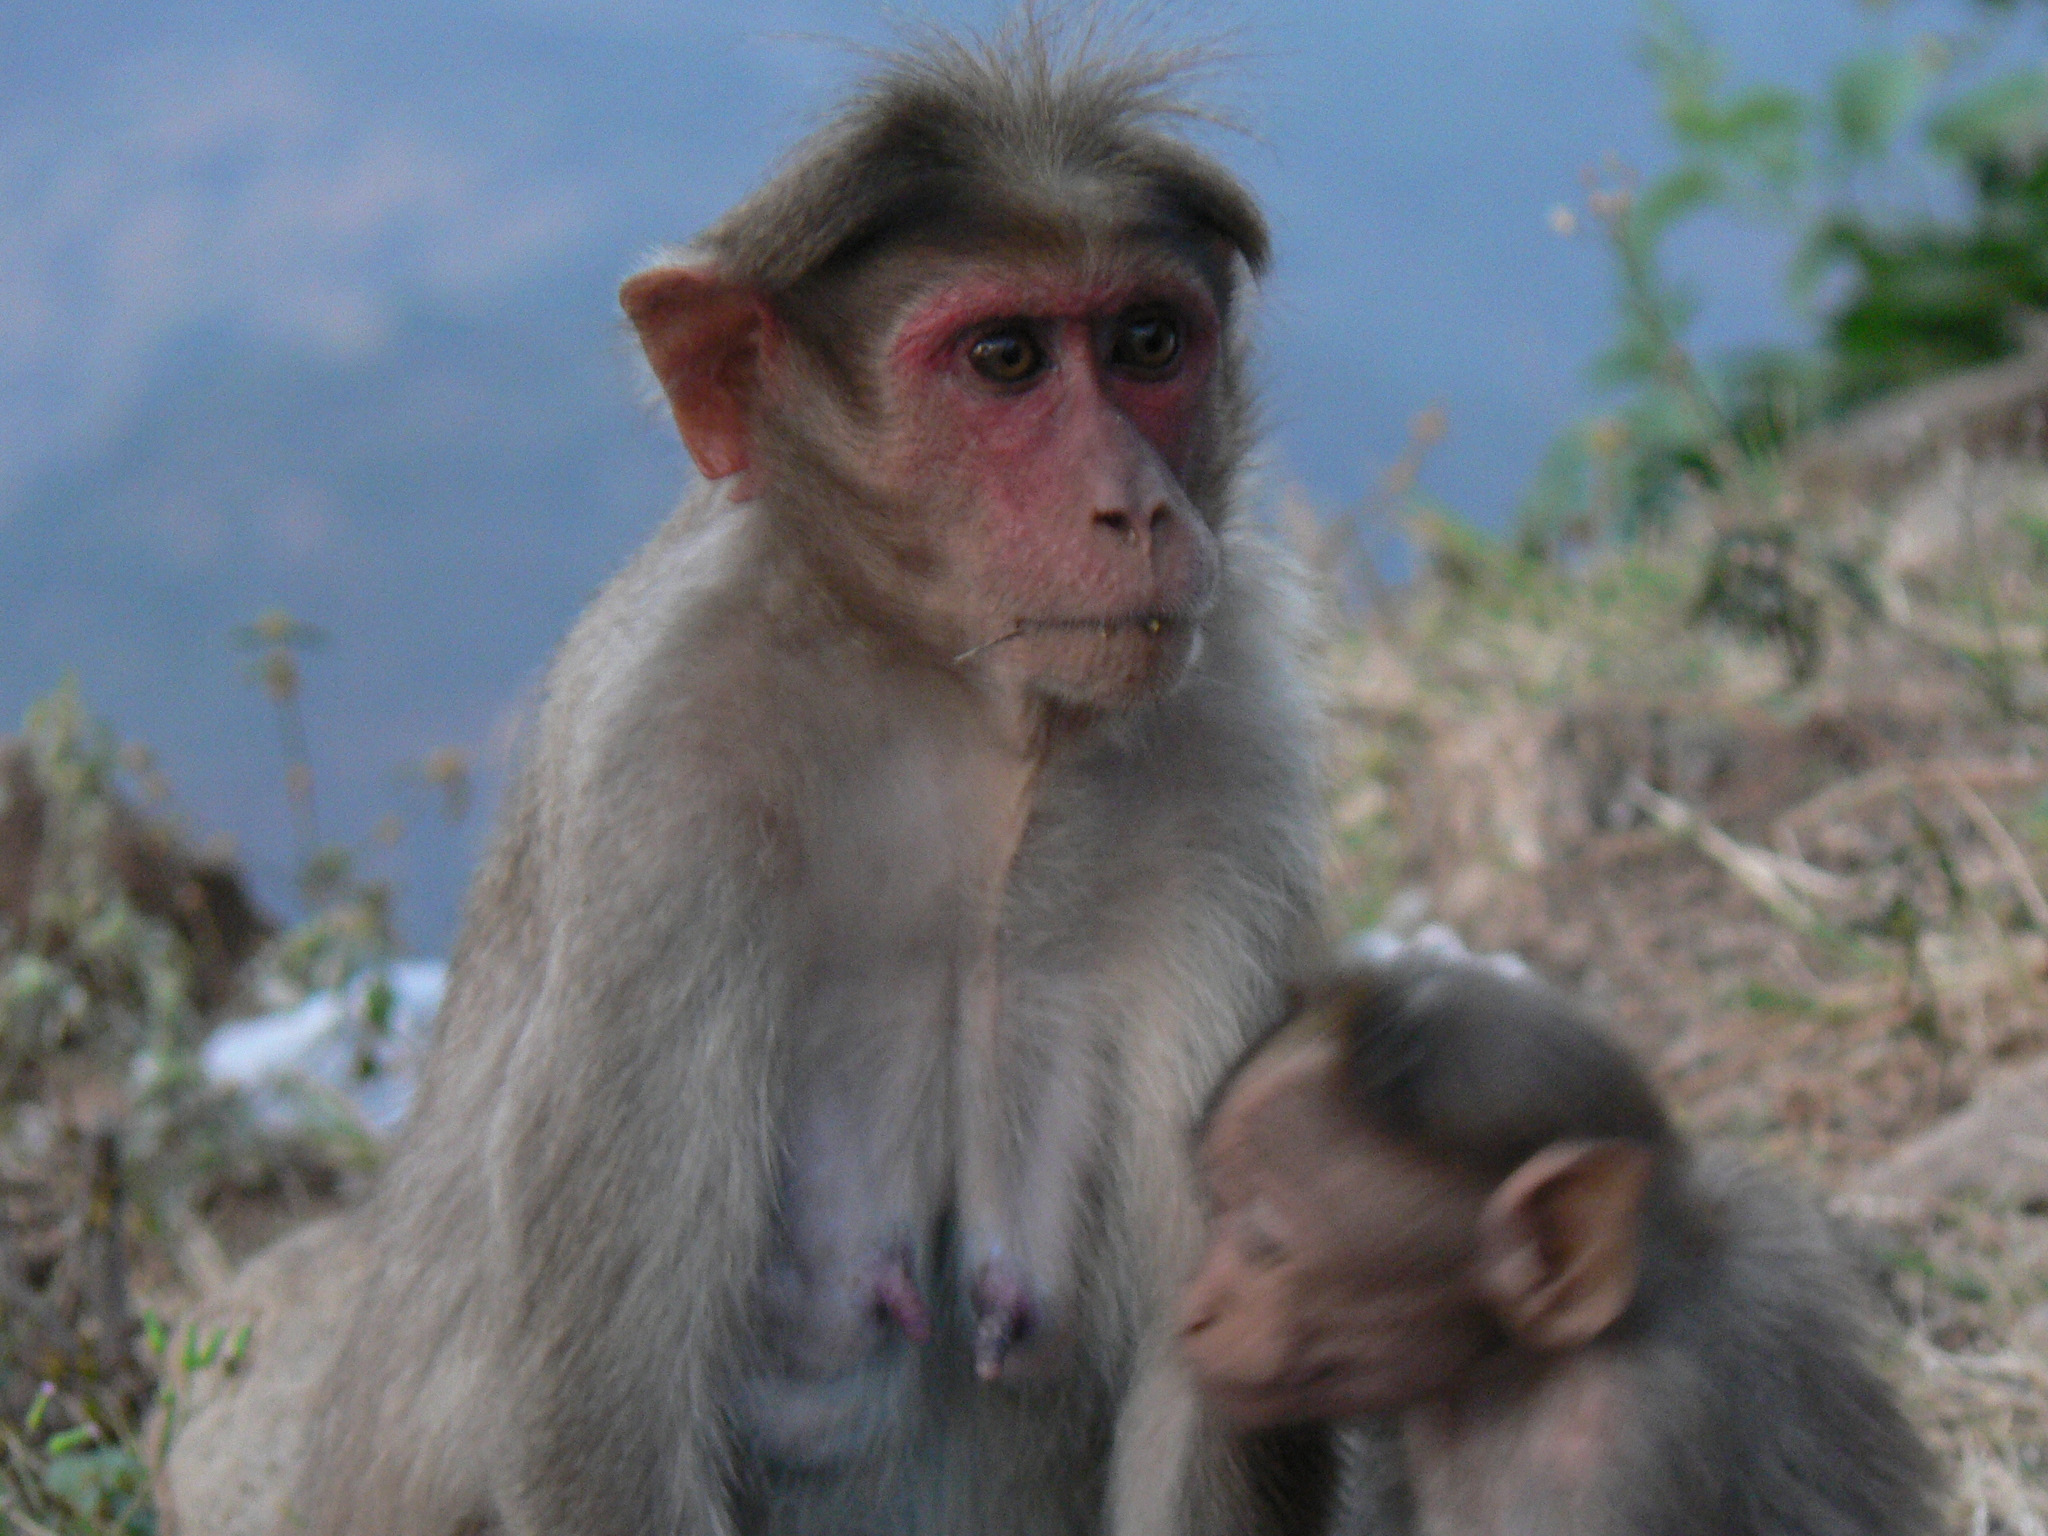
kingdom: Animalia
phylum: Chordata
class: Mammalia
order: Primates
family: Cercopithecidae
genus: Macaca
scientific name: Macaca radiata
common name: Bonnet macaque
